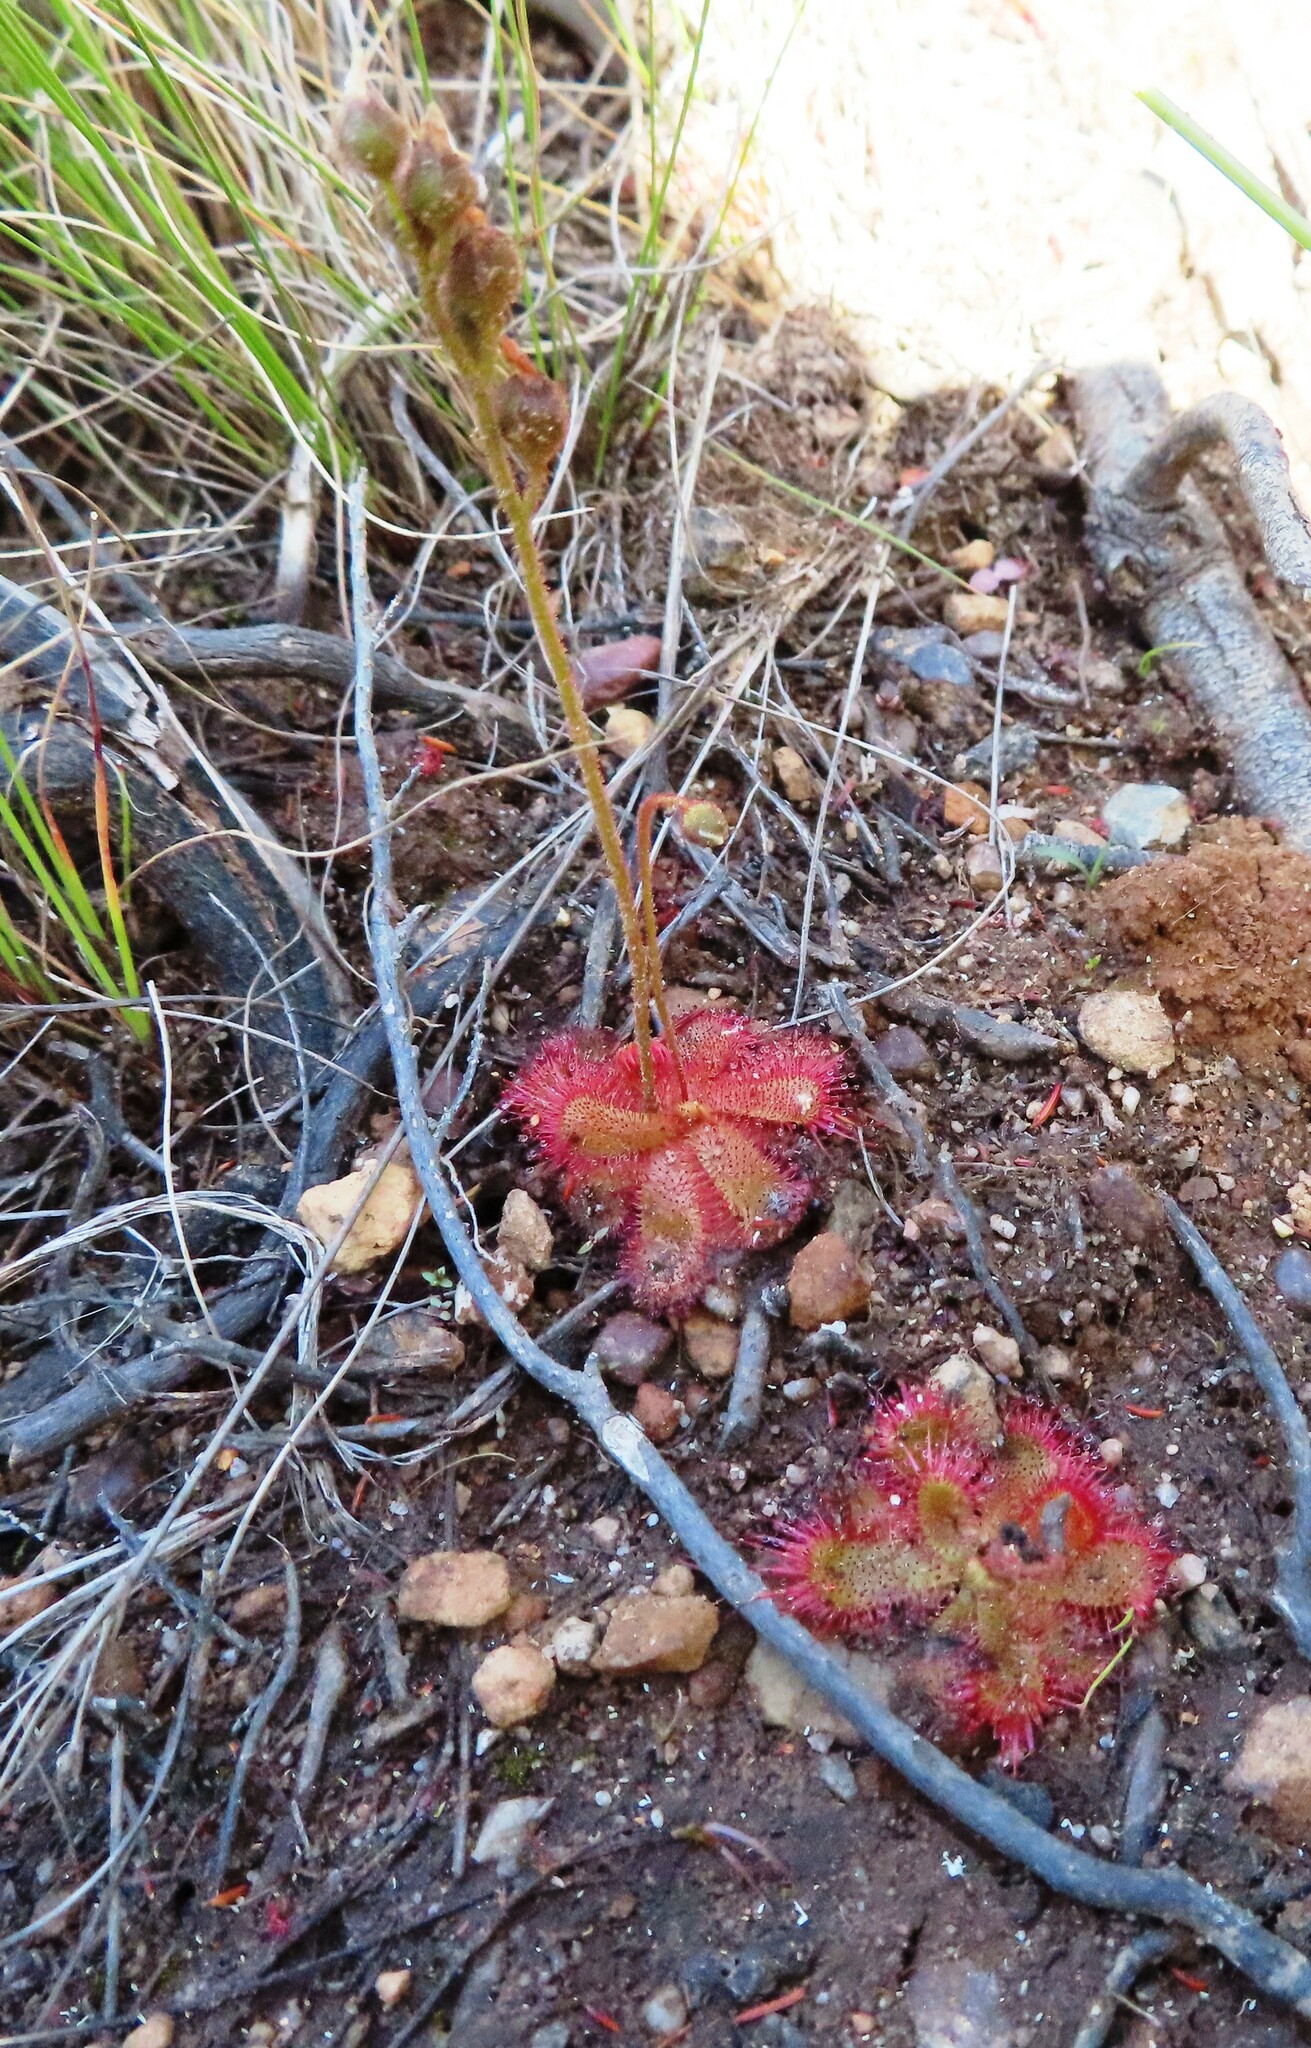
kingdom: Plantae
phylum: Tracheophyta
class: Magnoliopsida
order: Caryophyllales
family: Droseraceae
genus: Drosera
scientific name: Drosera trinervia
